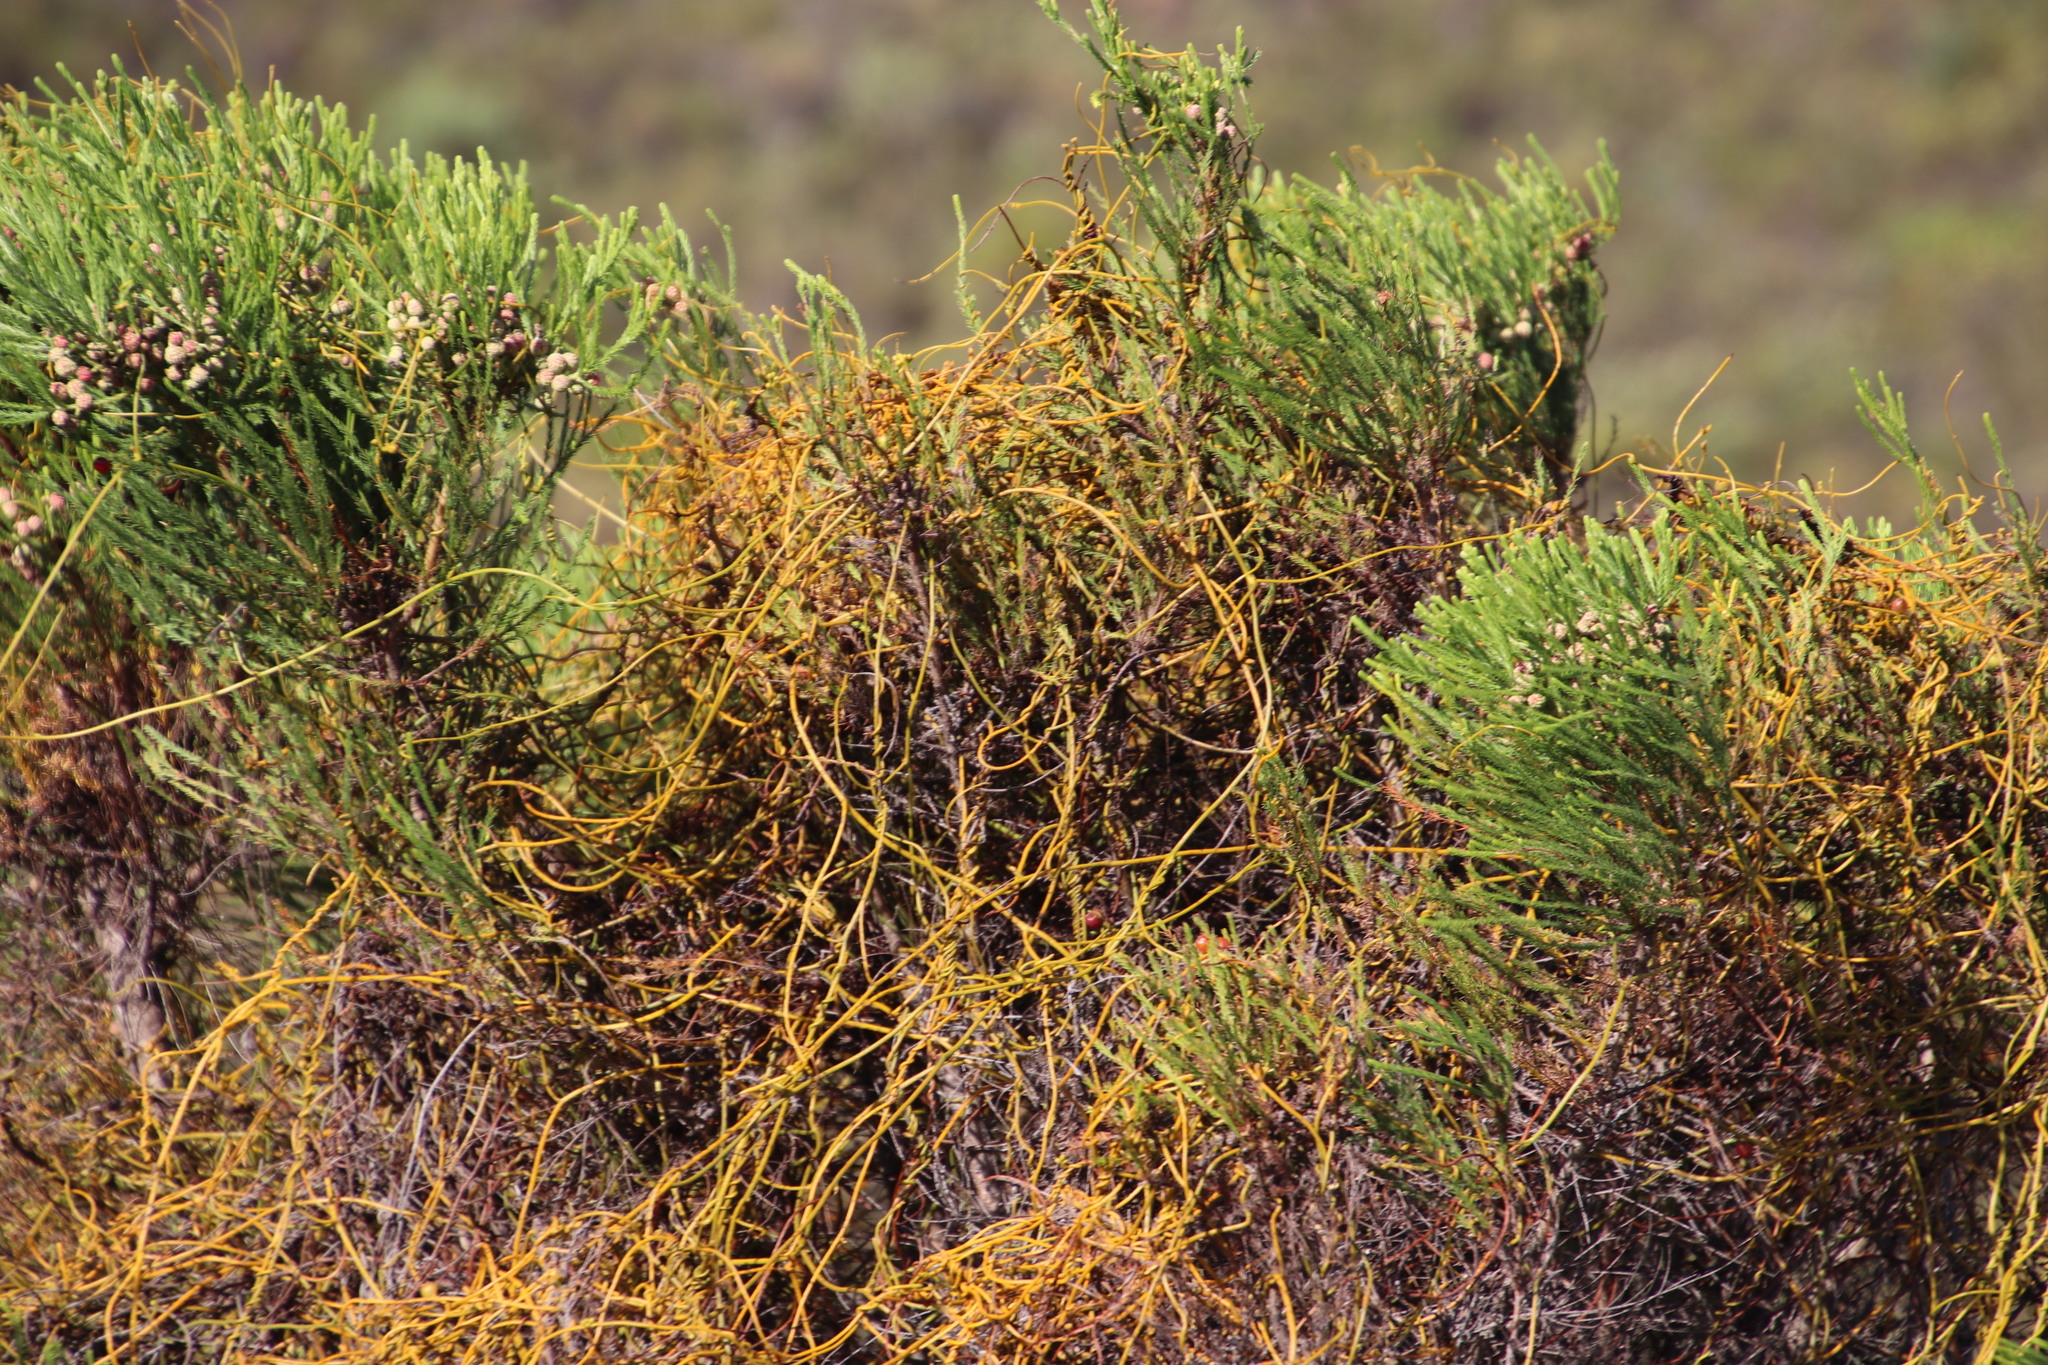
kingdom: Plantae
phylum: Tracheophyta
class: Magnoliopsida
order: Laurales
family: Lauraceae
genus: Cassytha
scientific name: Cassytha ciliolata
